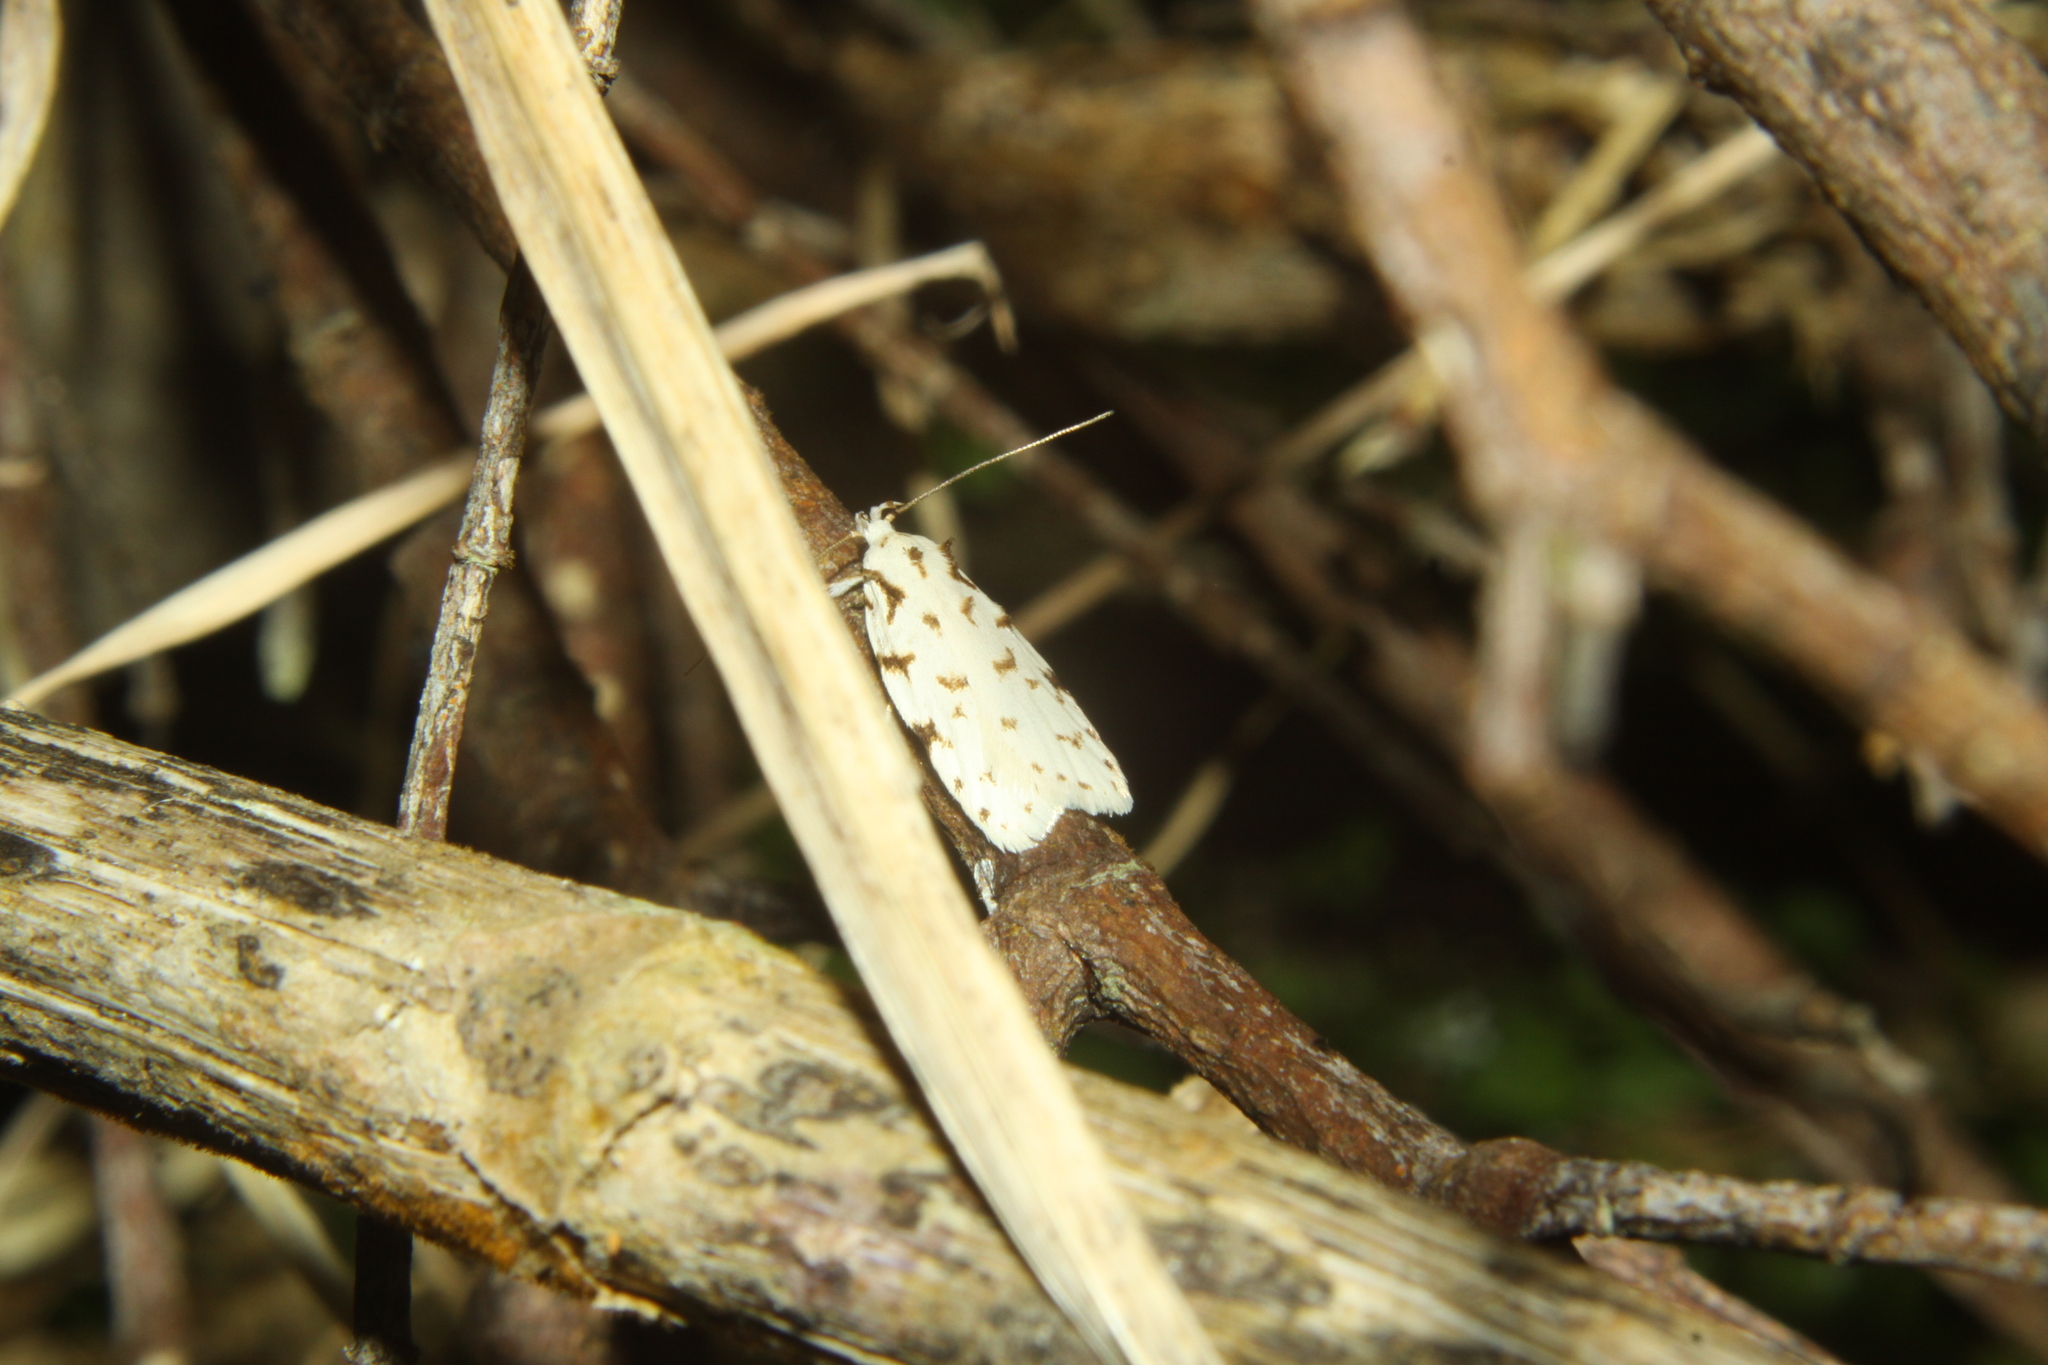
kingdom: Animalia
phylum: Arthropoda
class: Insecta
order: Lepidoptera
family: Oecophoridae
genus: Izatha
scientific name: Izatha hudsoni
